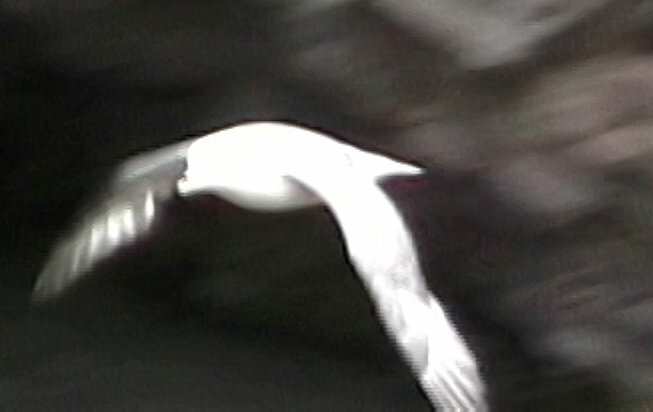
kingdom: Animalia
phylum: Chordata
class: Aves
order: Procellariiformes
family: Procellariidae
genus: Fulmarus
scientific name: Fulmarus glacialis
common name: Northern fulmar
